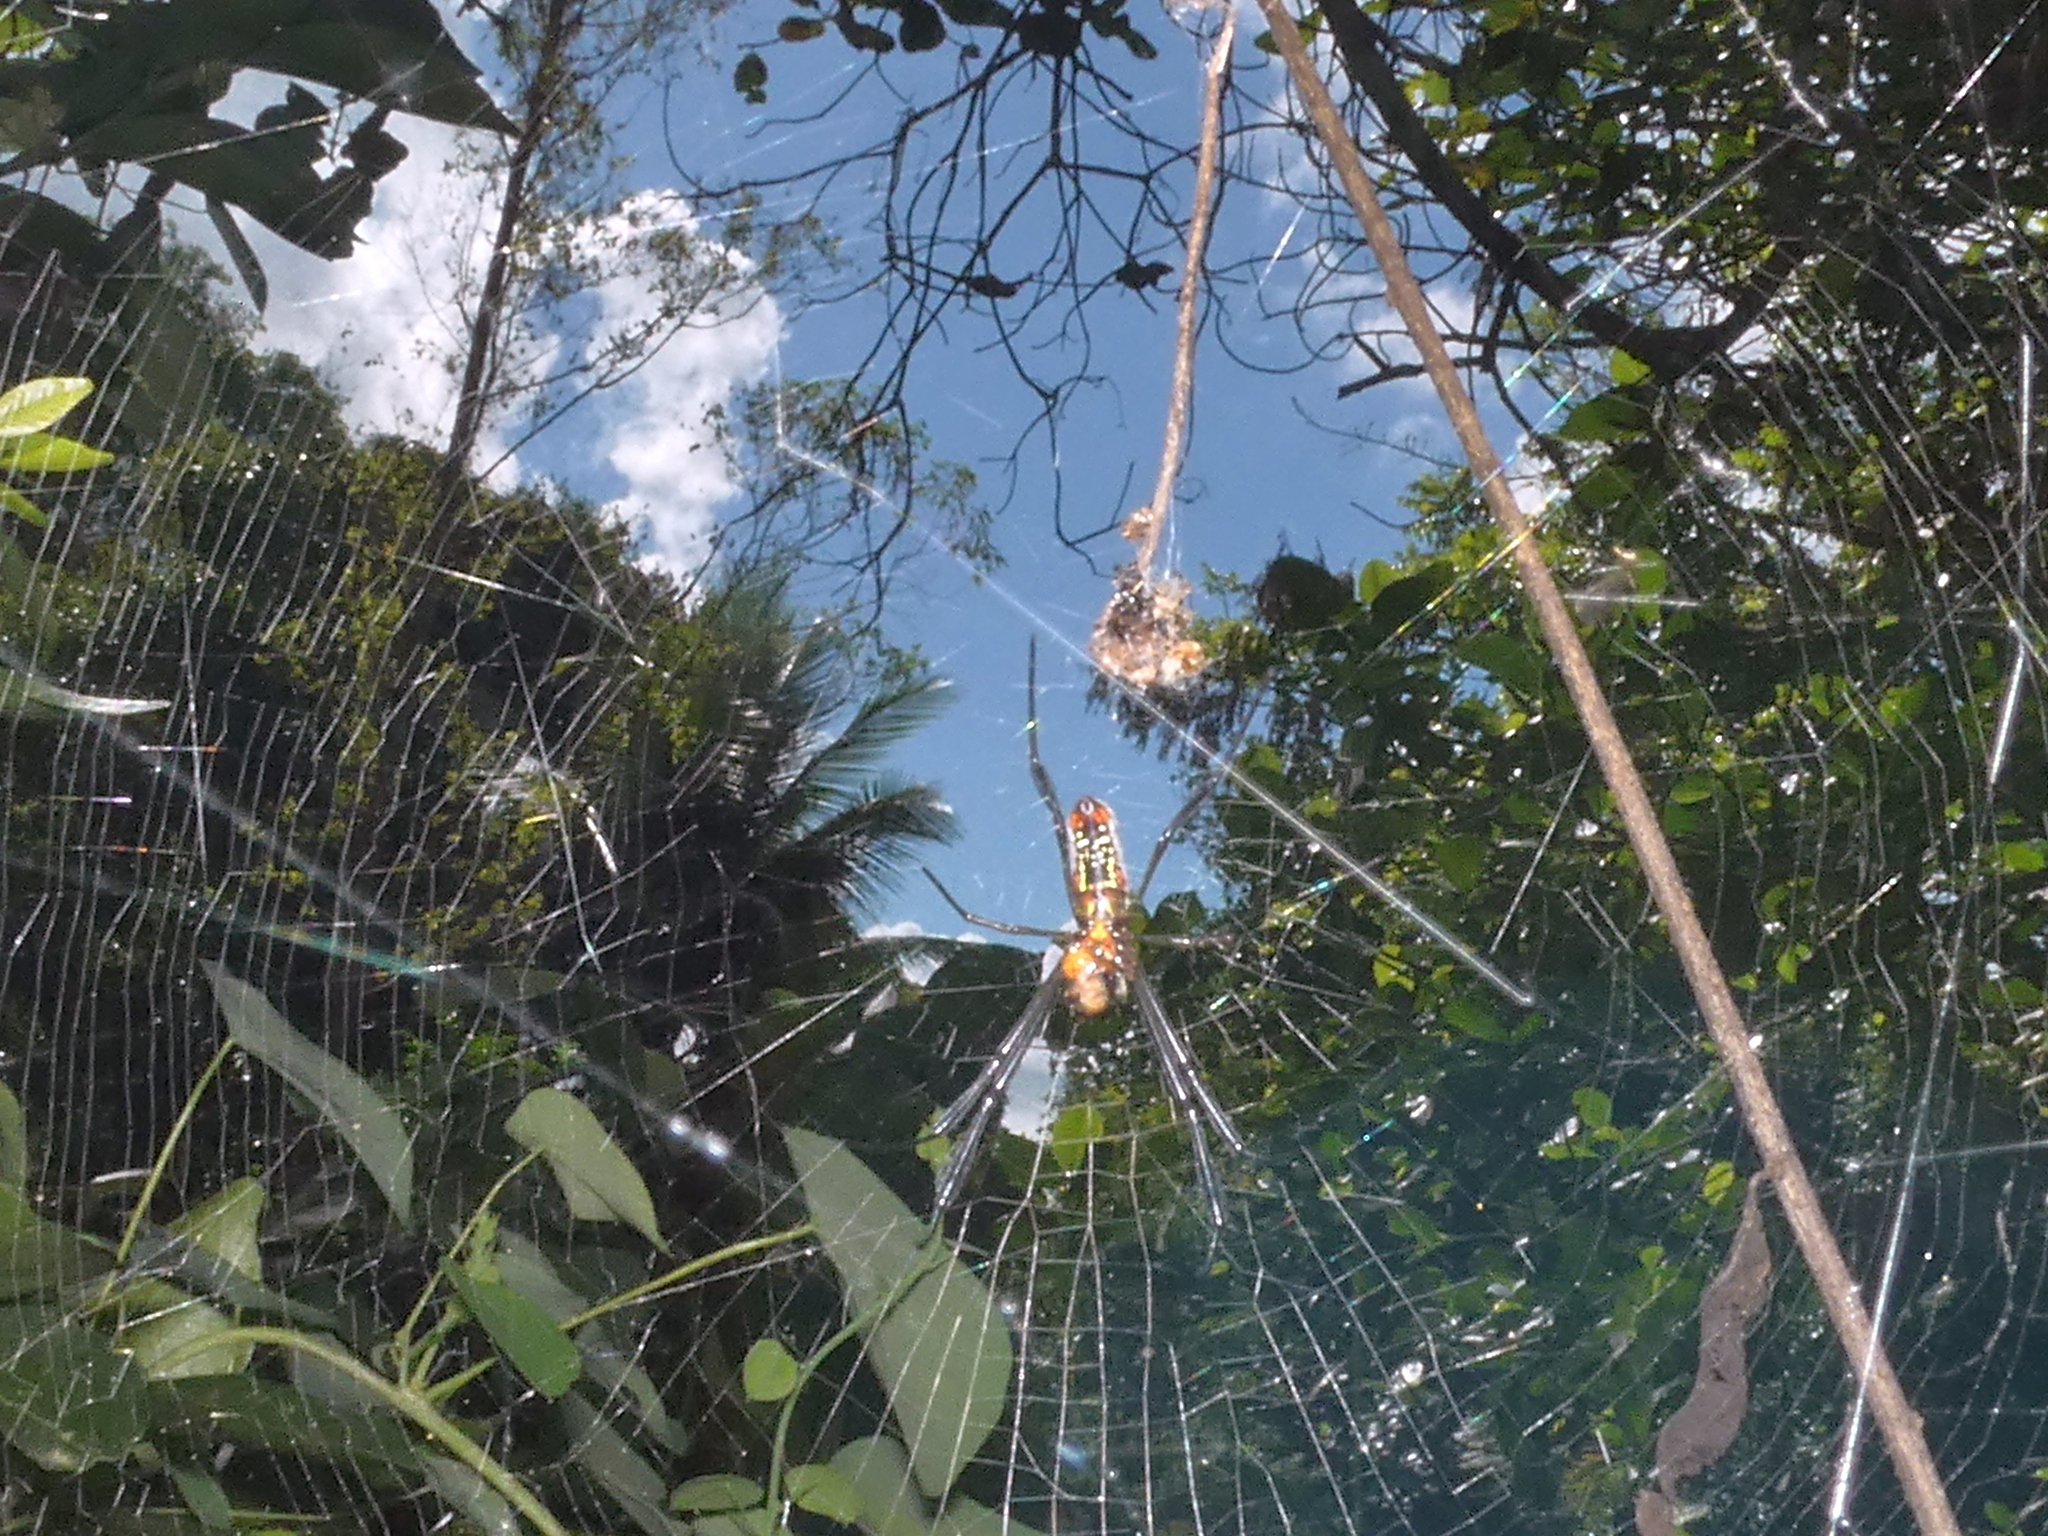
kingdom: Animalia
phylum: Arthropoda
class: Arachnida
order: Araneae
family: Araneidae
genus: Trichonephila
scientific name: Trichonephila clavipes
